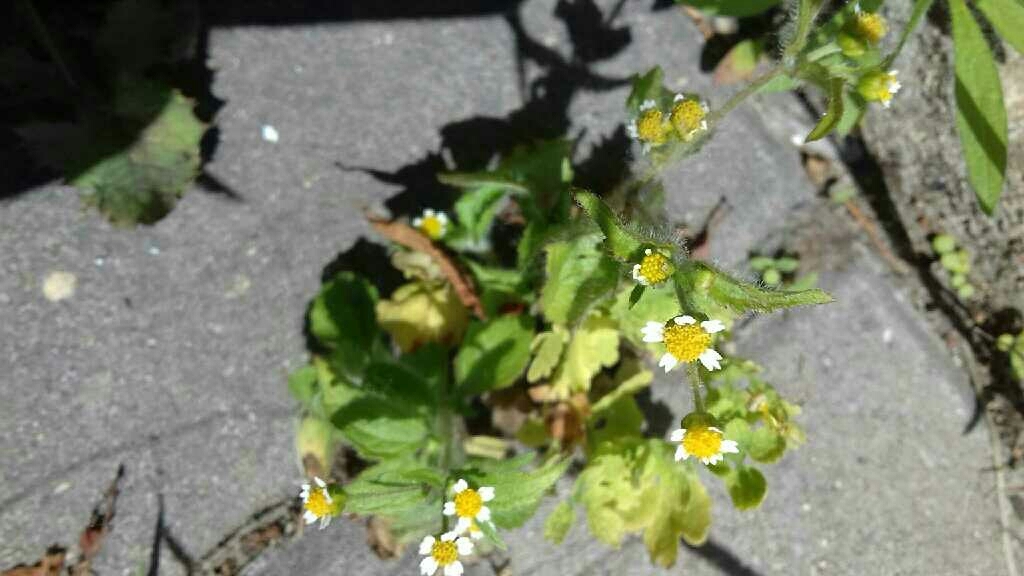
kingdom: Plantae
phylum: Tracheophyta
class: Magnoliopsida
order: Asterales
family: Asteraceae
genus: Galinsoga
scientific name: Galinsoga quadriradiata
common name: Shaggy soldier
